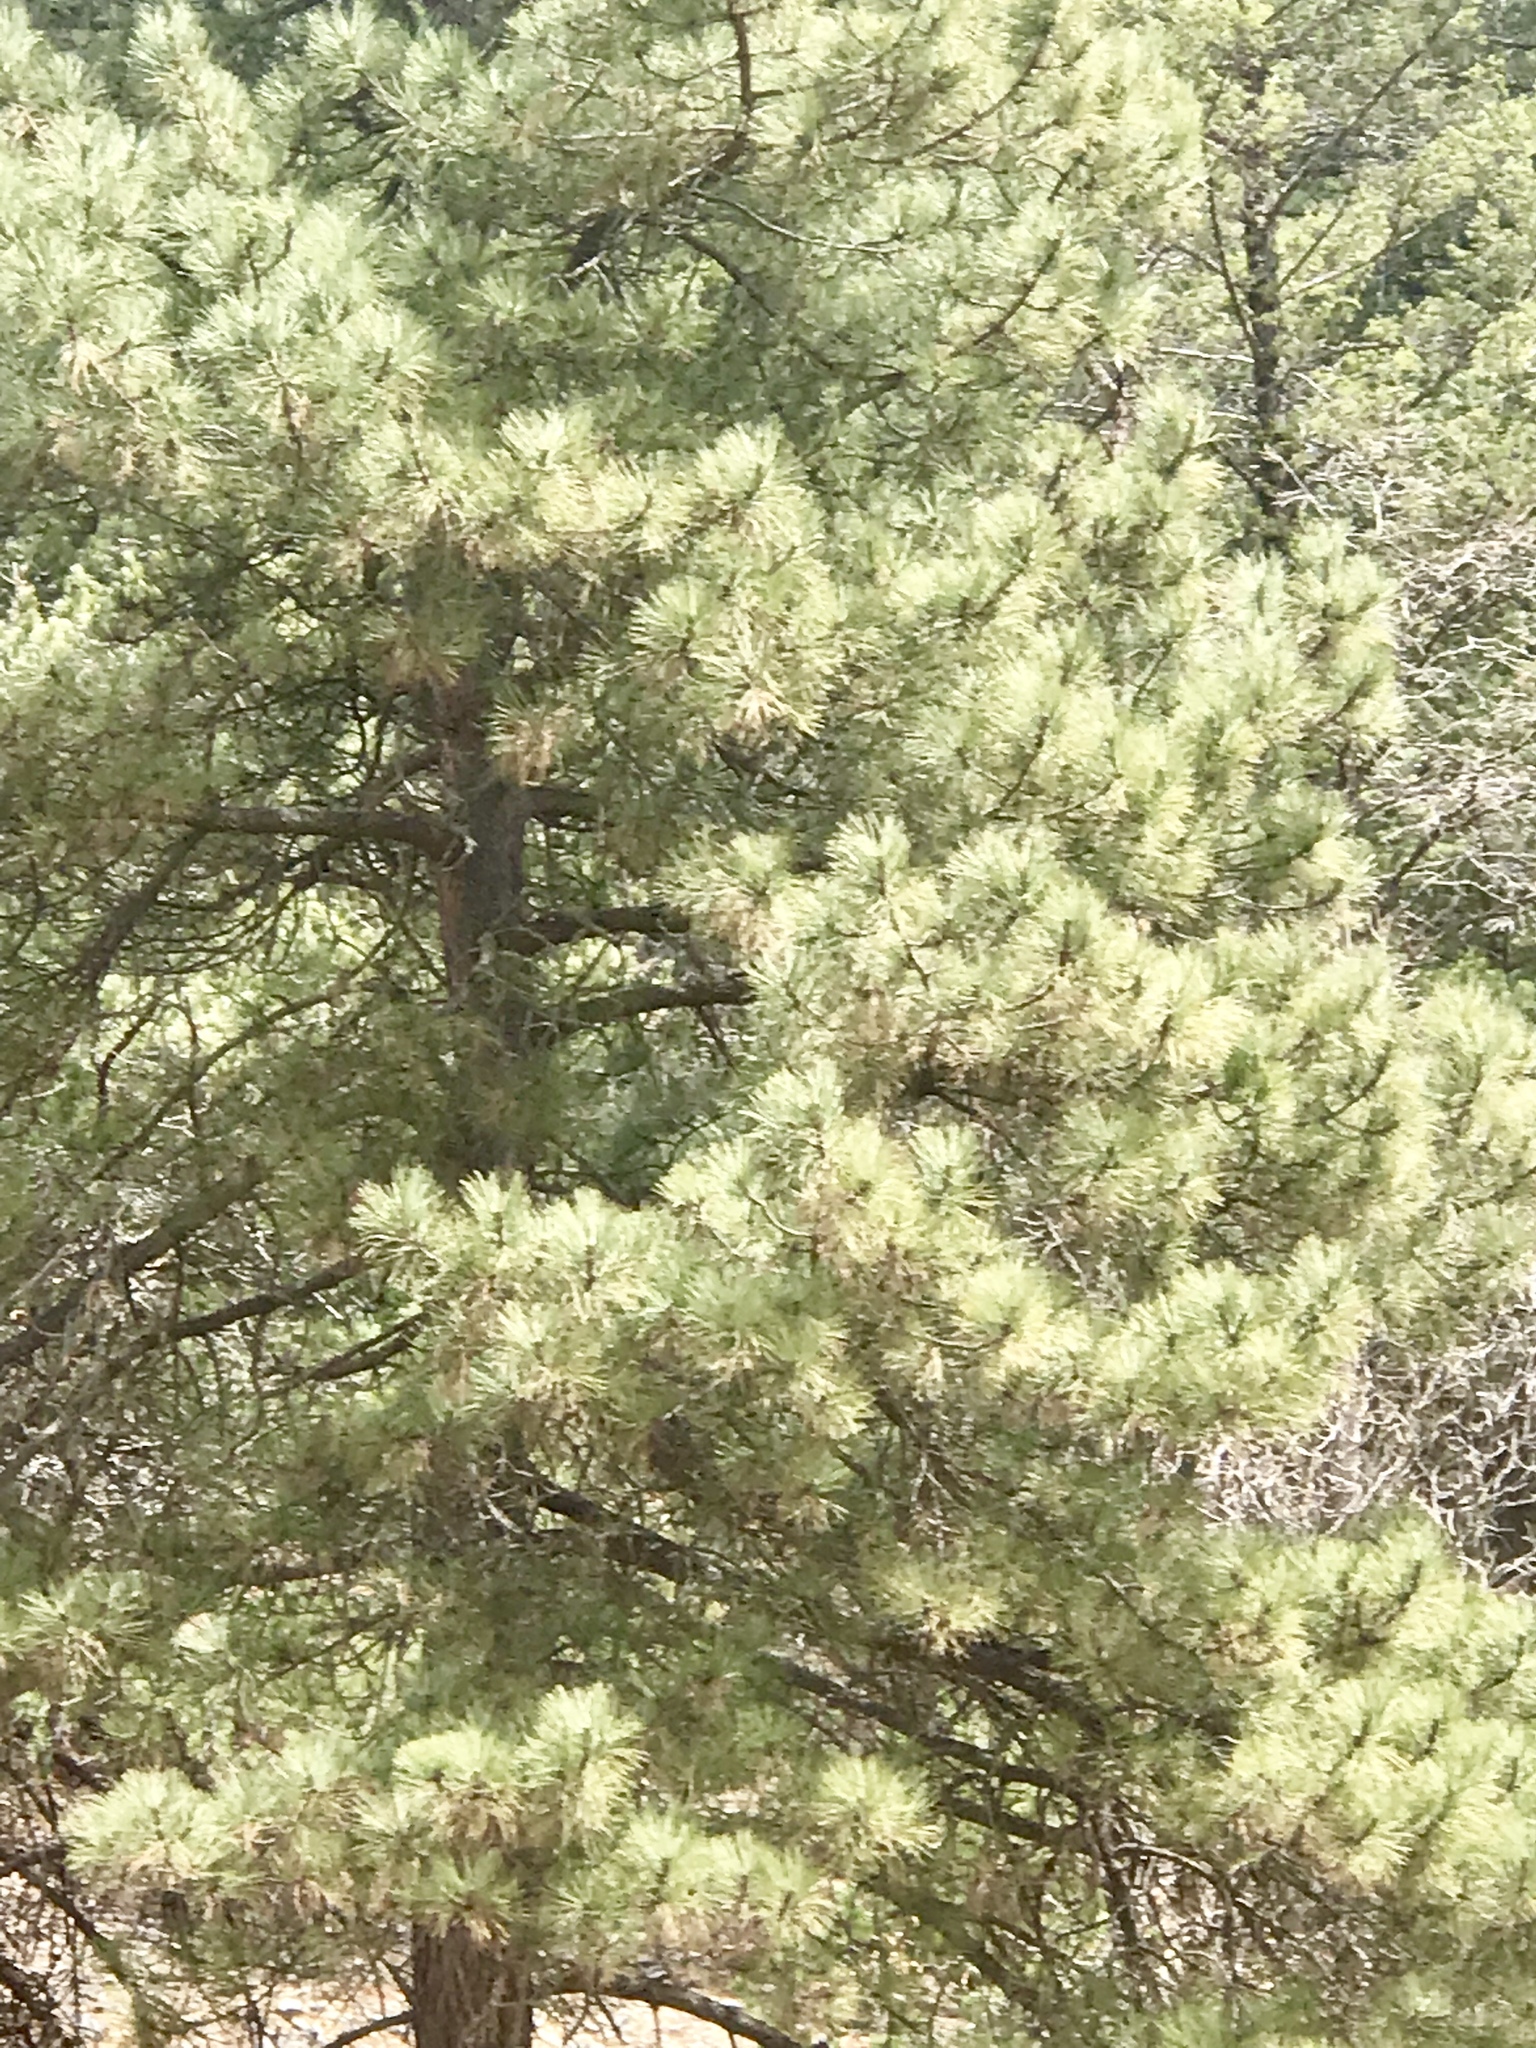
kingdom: Plantae
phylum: Tracheophyta
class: Pinopsida
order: Pinales
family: Pinaceae
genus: Pinus
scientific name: Pinus ponderosa
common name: Western yellow-pine
